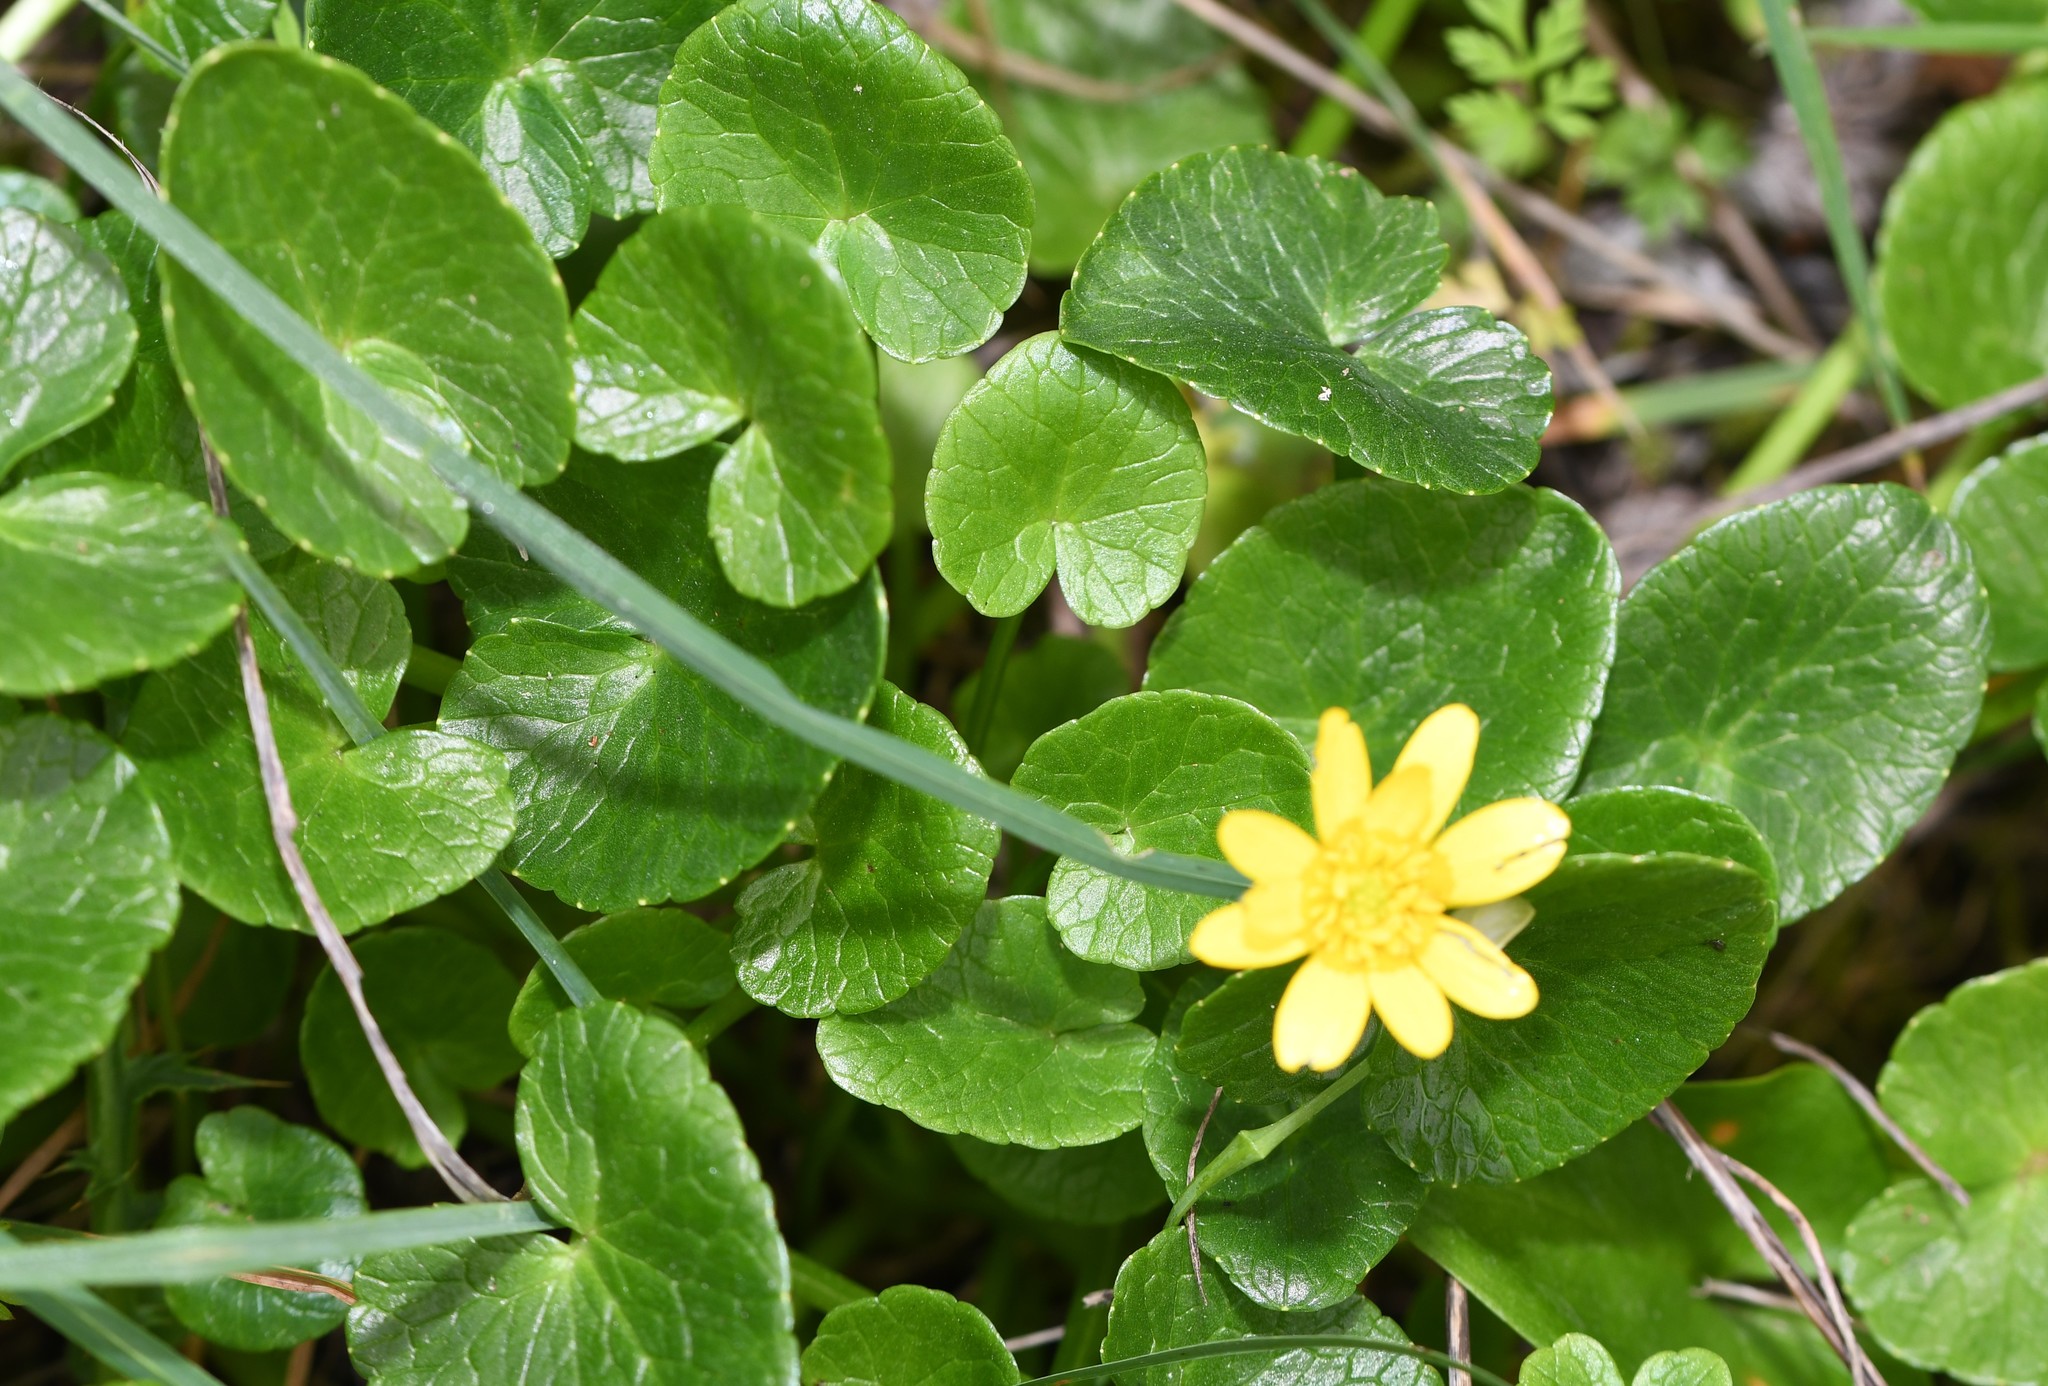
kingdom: Plantae
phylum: Tracheophyta
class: Magnoliopsida
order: Ranunculales
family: Ranunculaceae
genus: Ficaria
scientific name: Ficaria verna
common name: Lesser celandine
